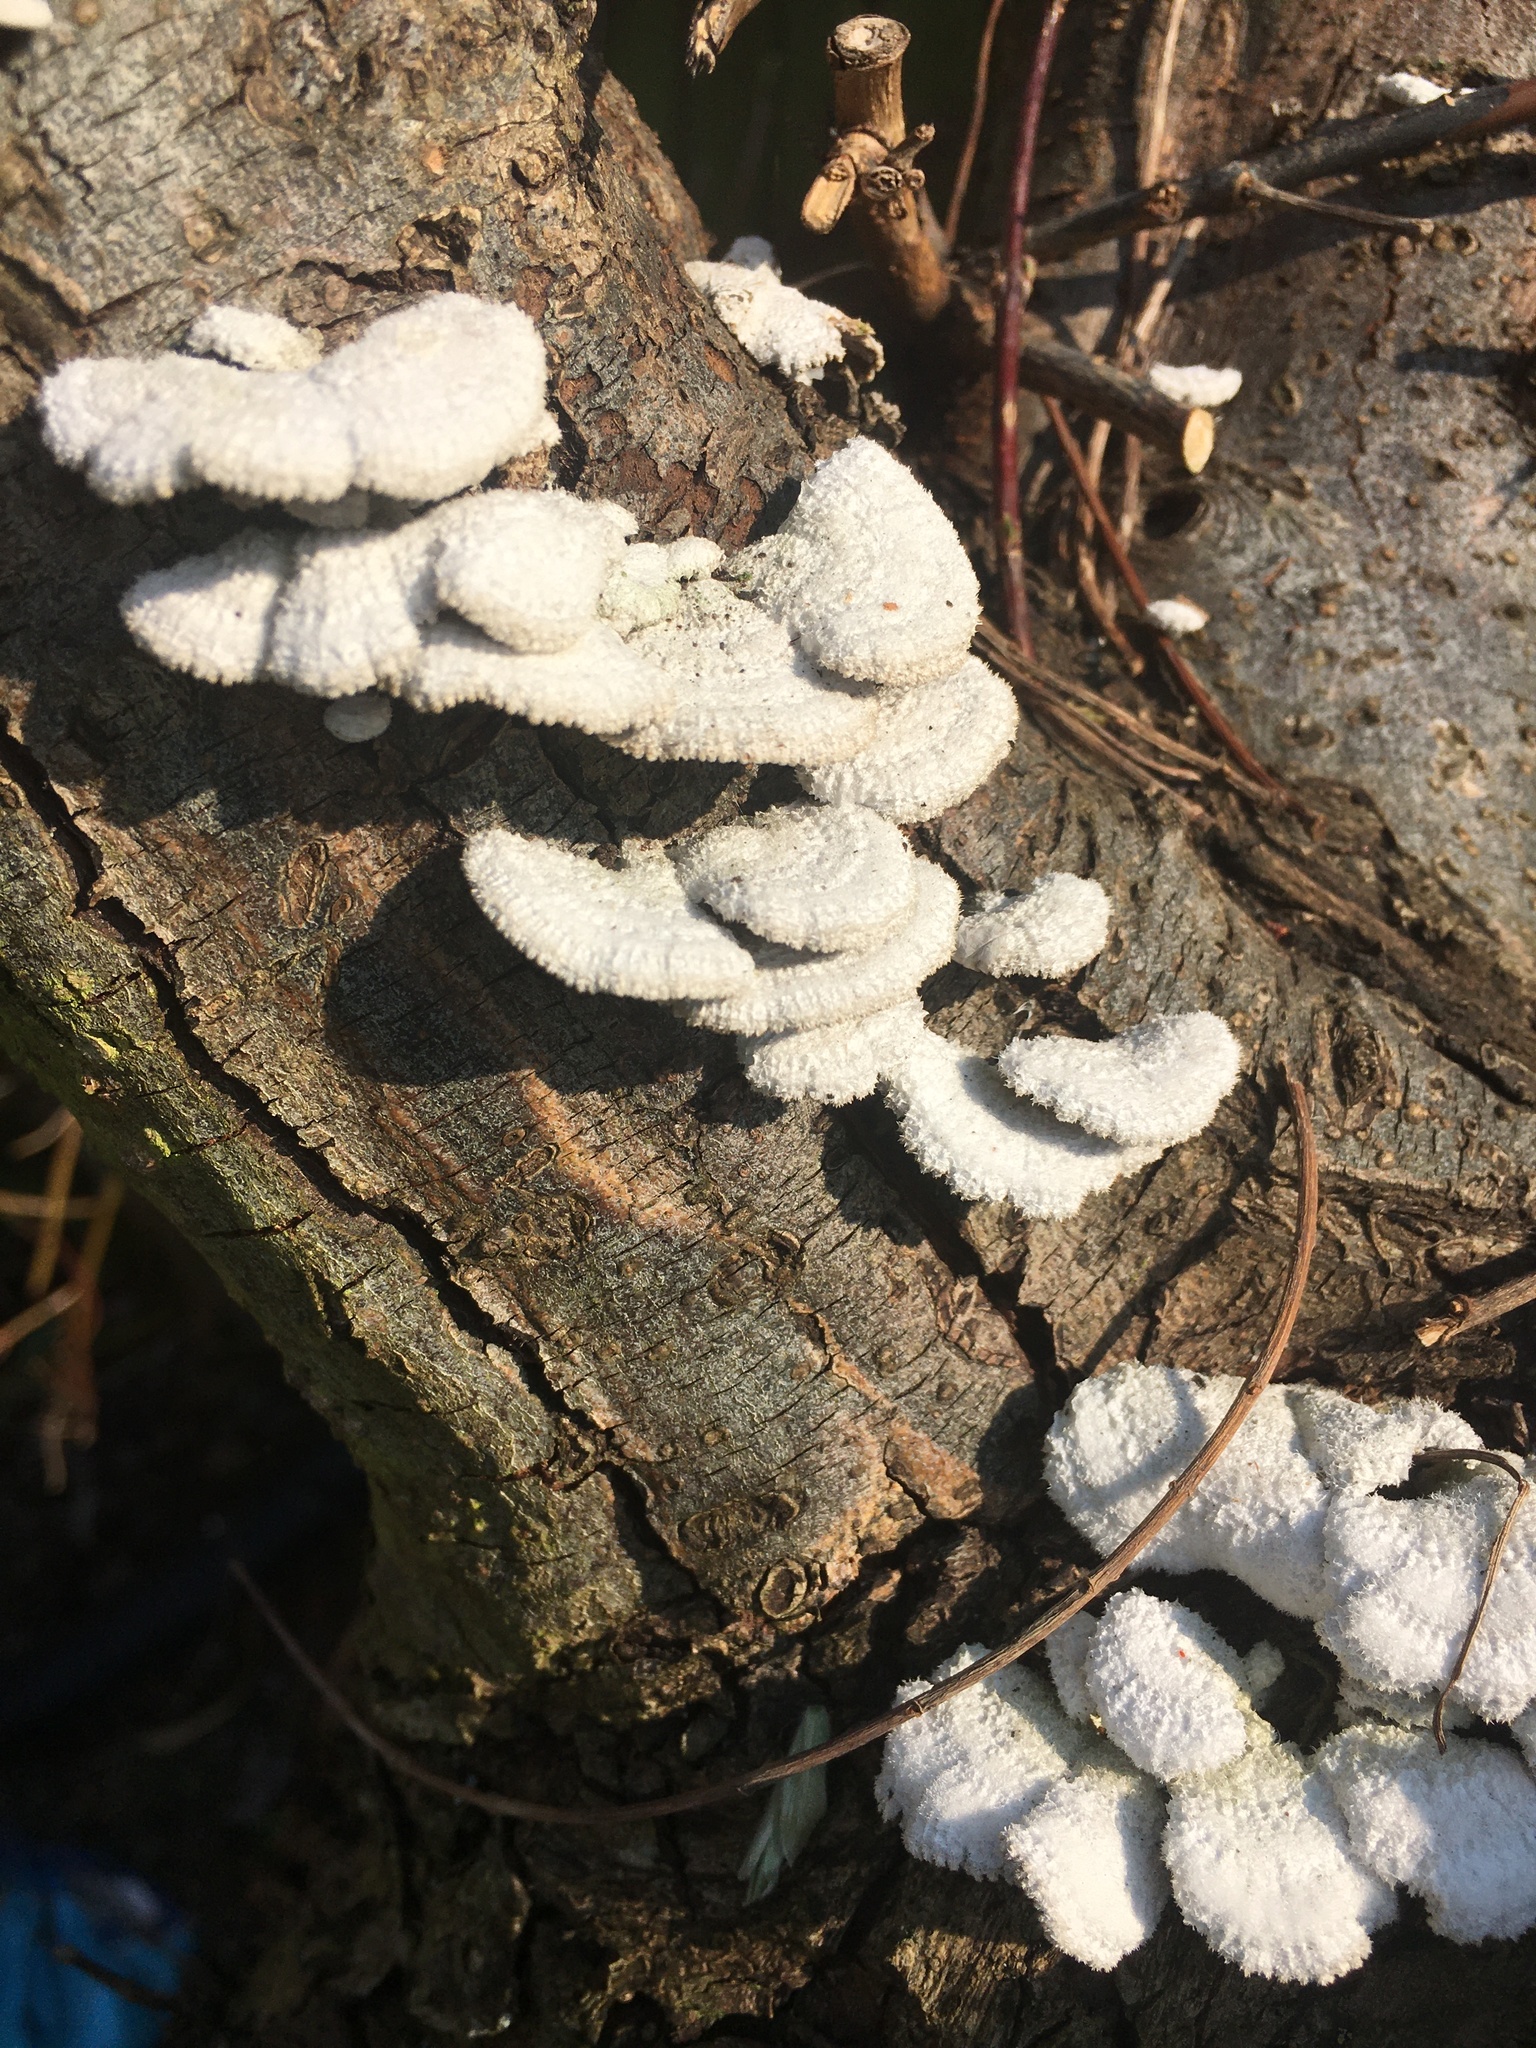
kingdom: Fungi
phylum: Basidiomycota
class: Agaricomycetes
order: Agaricales
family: Schizophyllaceae
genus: Schizophyllum
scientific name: Schizophyllum commune
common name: Common porecrust
